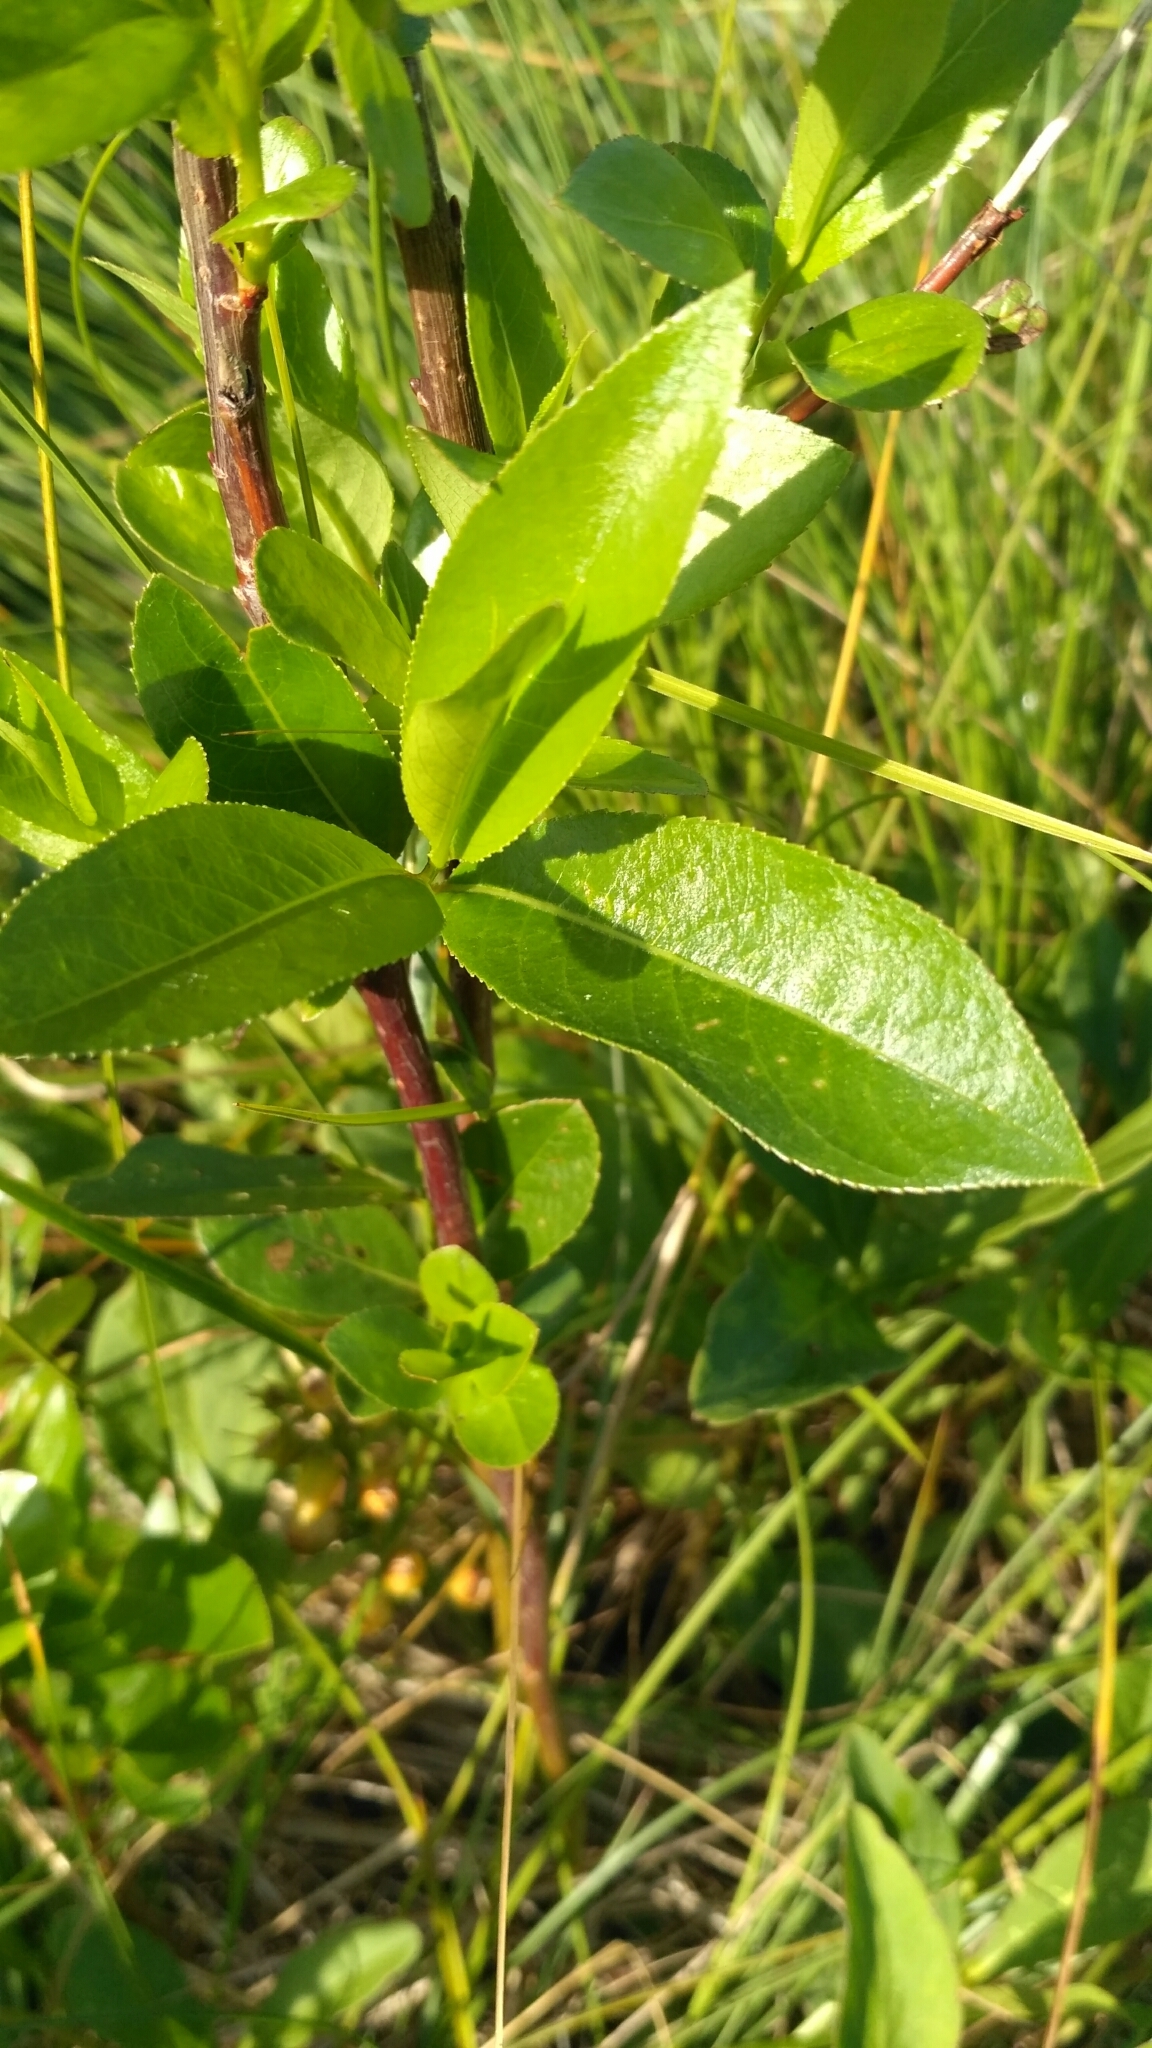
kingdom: Plantae
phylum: Tracheophyta
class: Magnoliopsida
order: Malpighiales
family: Salicaceae
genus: Salix
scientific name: Salix pentandra
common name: Bay willow
